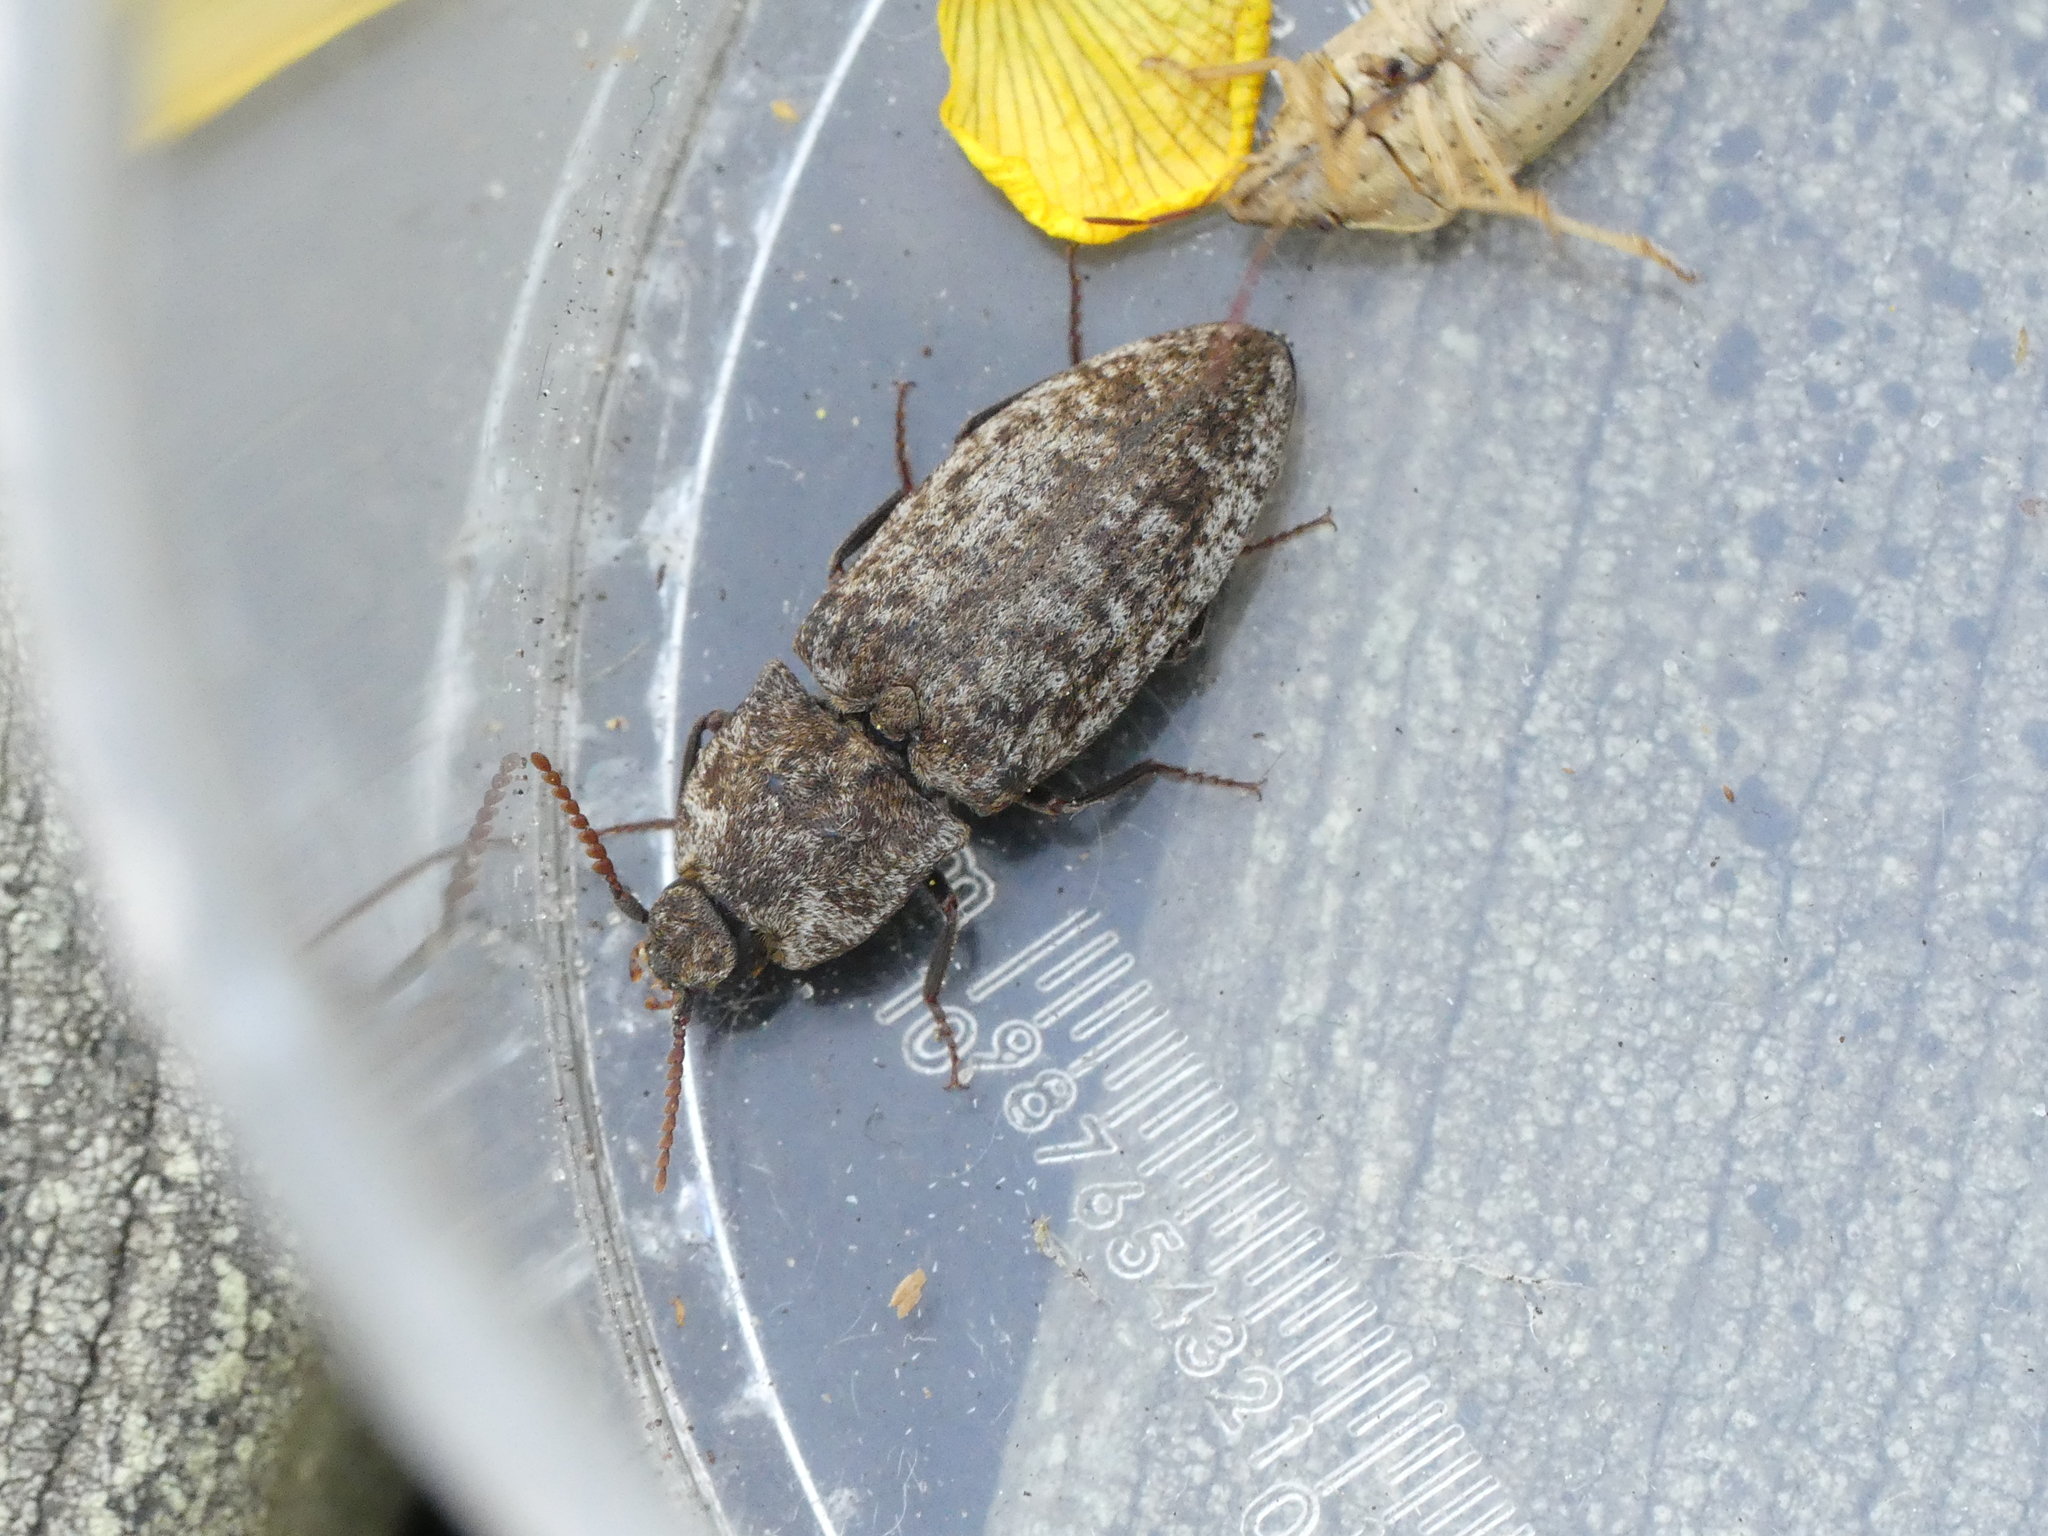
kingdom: Animalia
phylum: Arthropoda
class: Insecta
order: Coleoptera
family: Elateridae
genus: Agrypnus
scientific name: Agrypnus murinus
